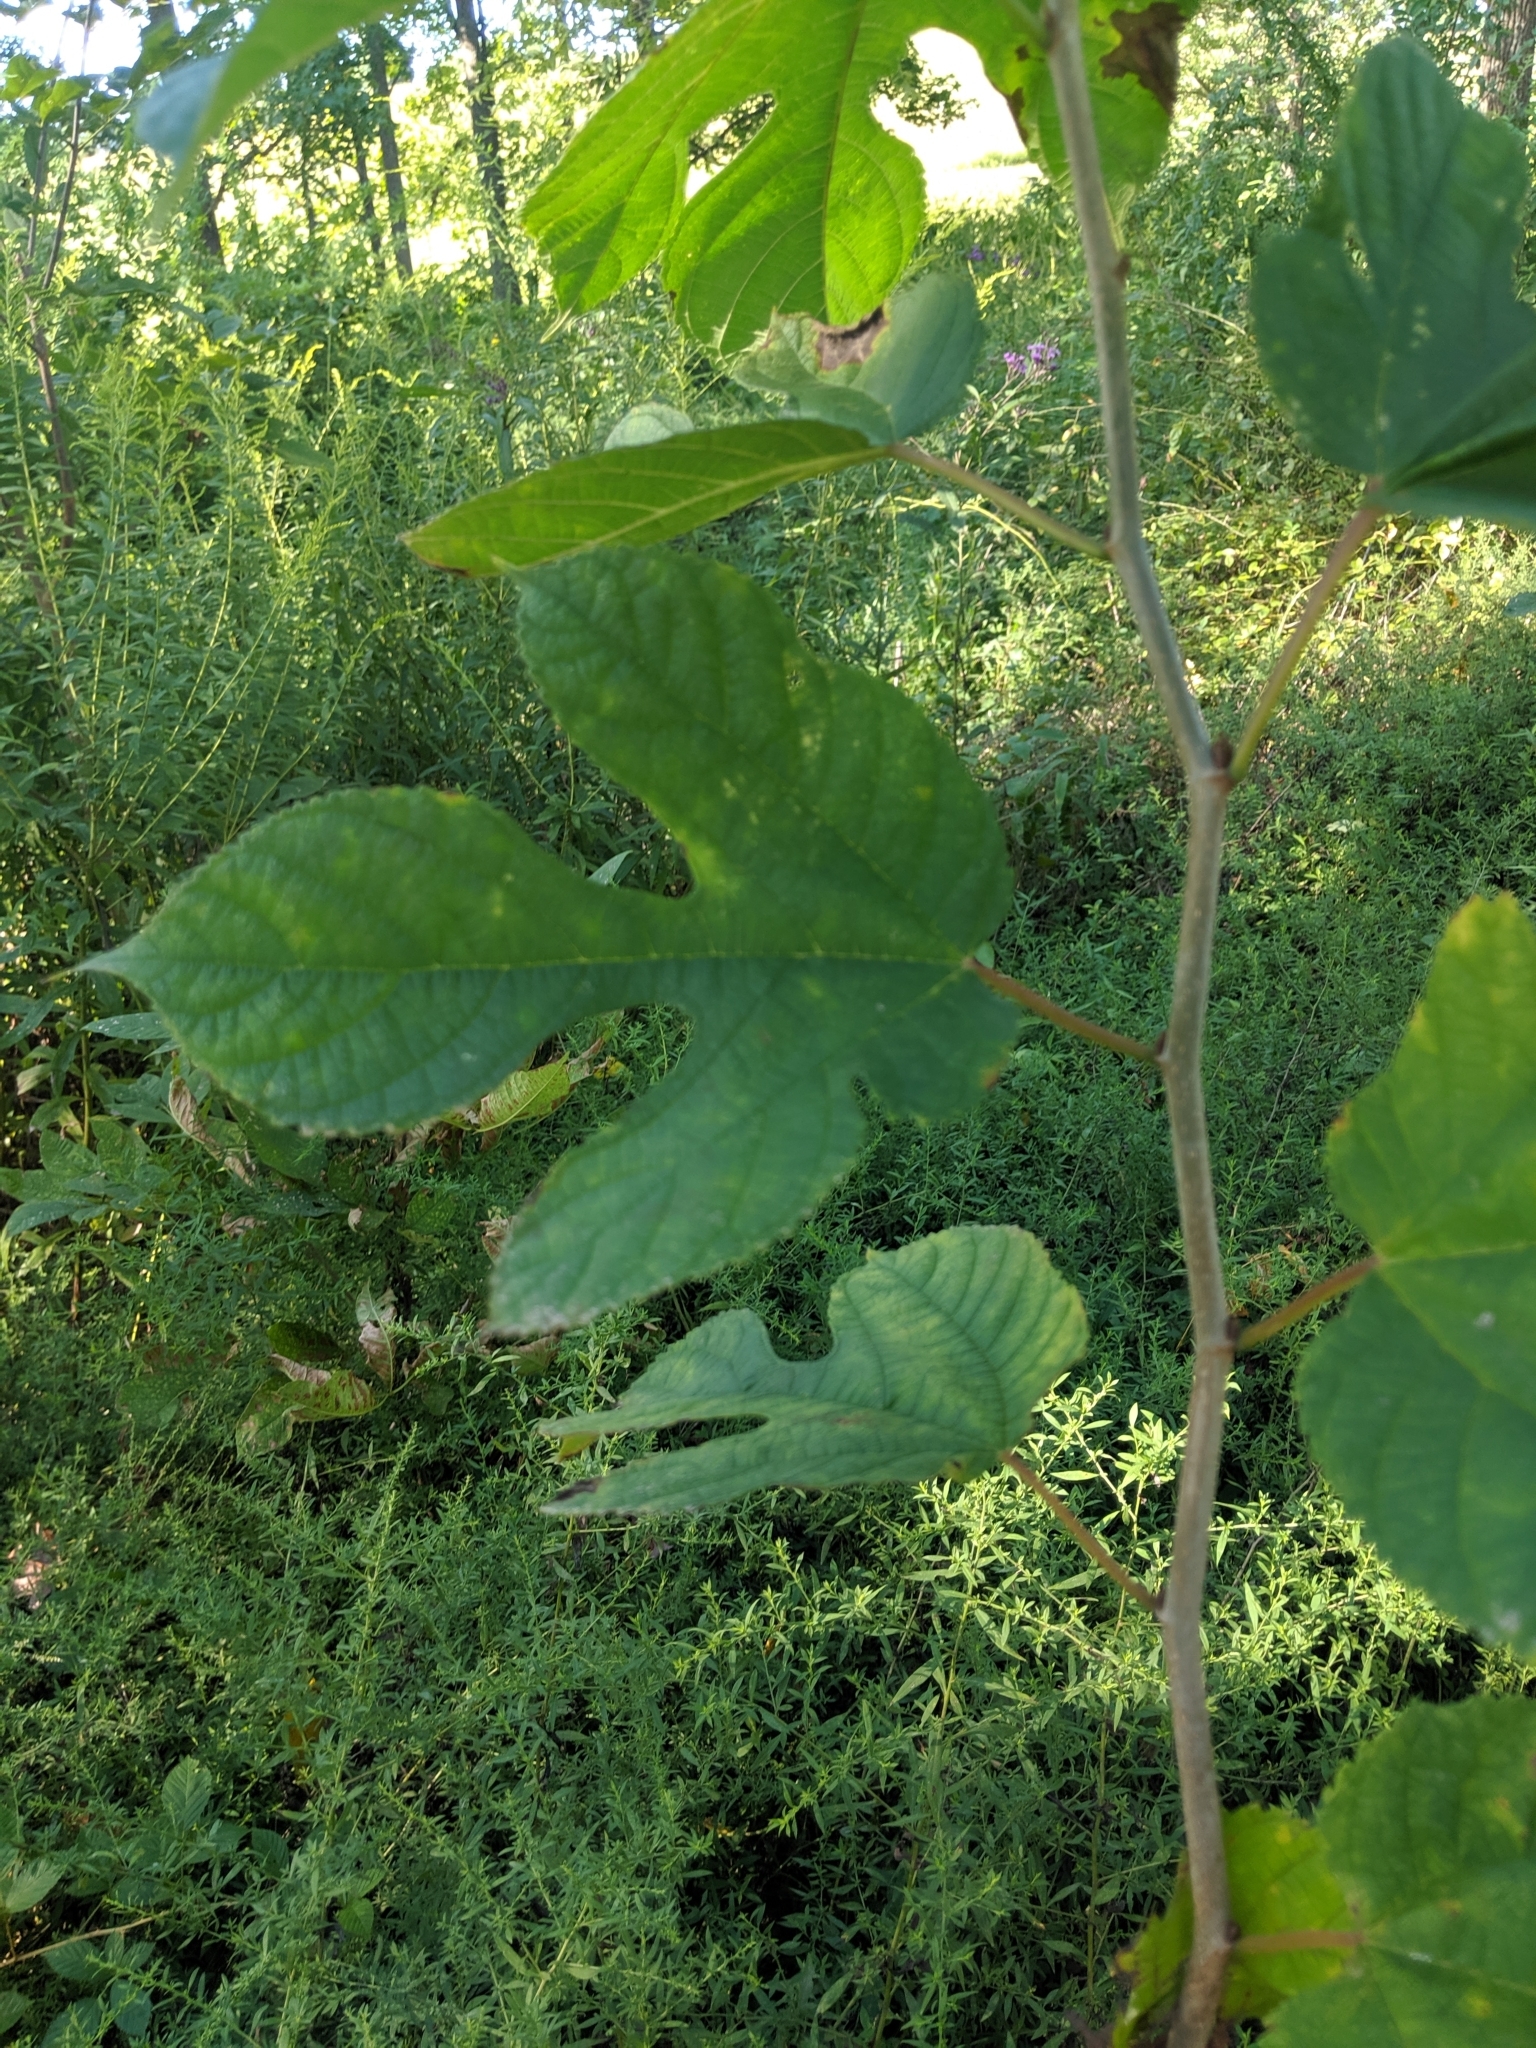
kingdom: Plantae
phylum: Tracheophyta
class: Magnoliopsida
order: Rosales
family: Moraceae
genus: Morus
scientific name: Morus rubra
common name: Red mulberry
